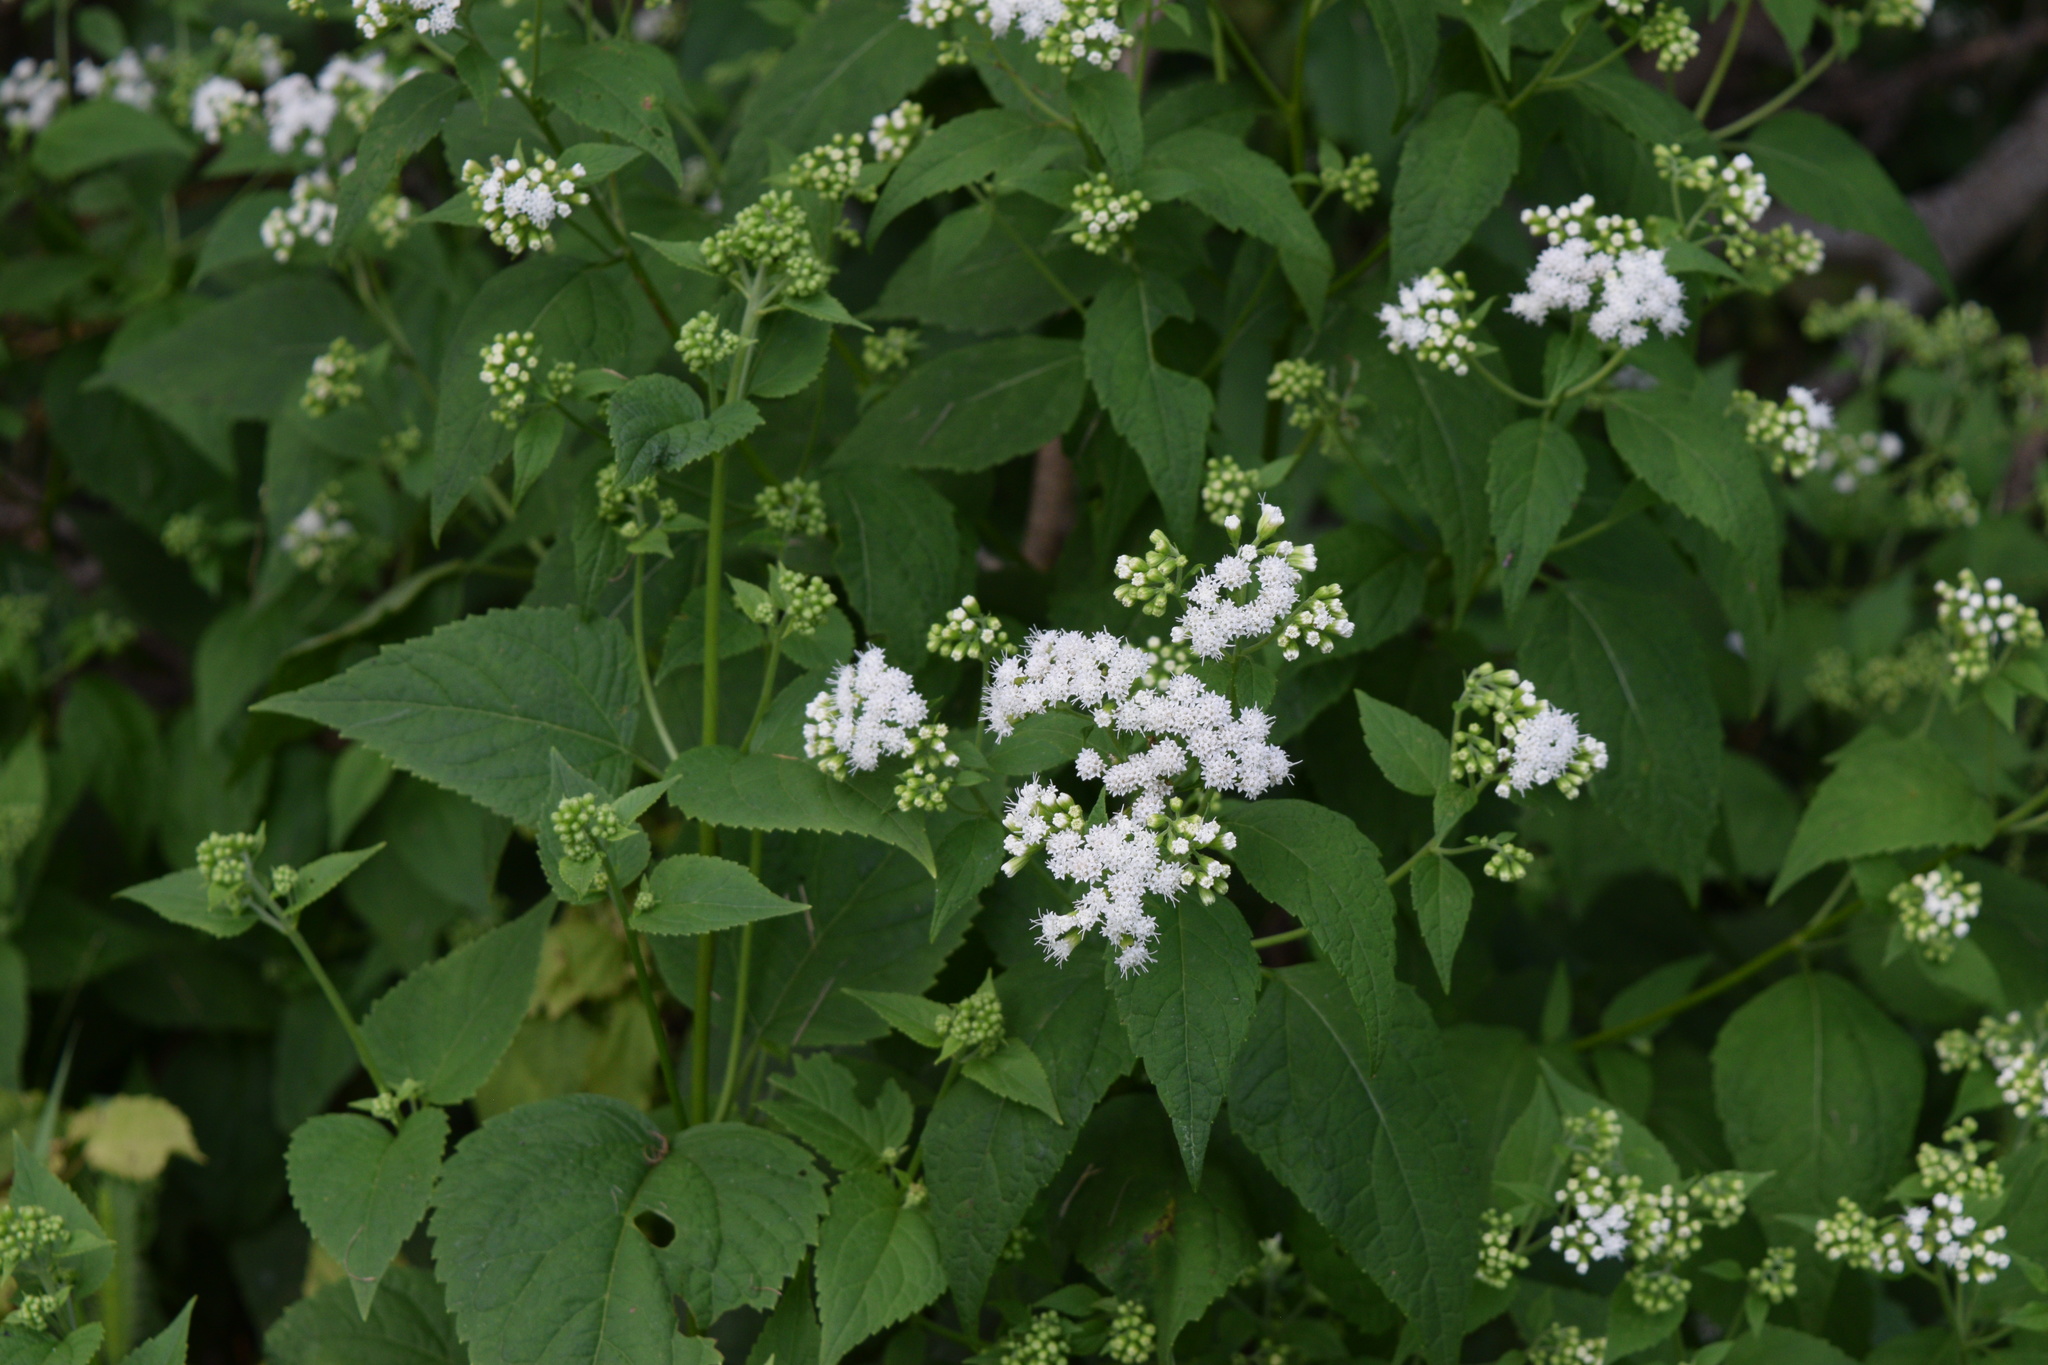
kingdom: Plantae
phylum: Tracheophyta
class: Magnoliopsida
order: Asterales
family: Asteraceae
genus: Ageratina
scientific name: Ageratina altissima
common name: White snakeroot
